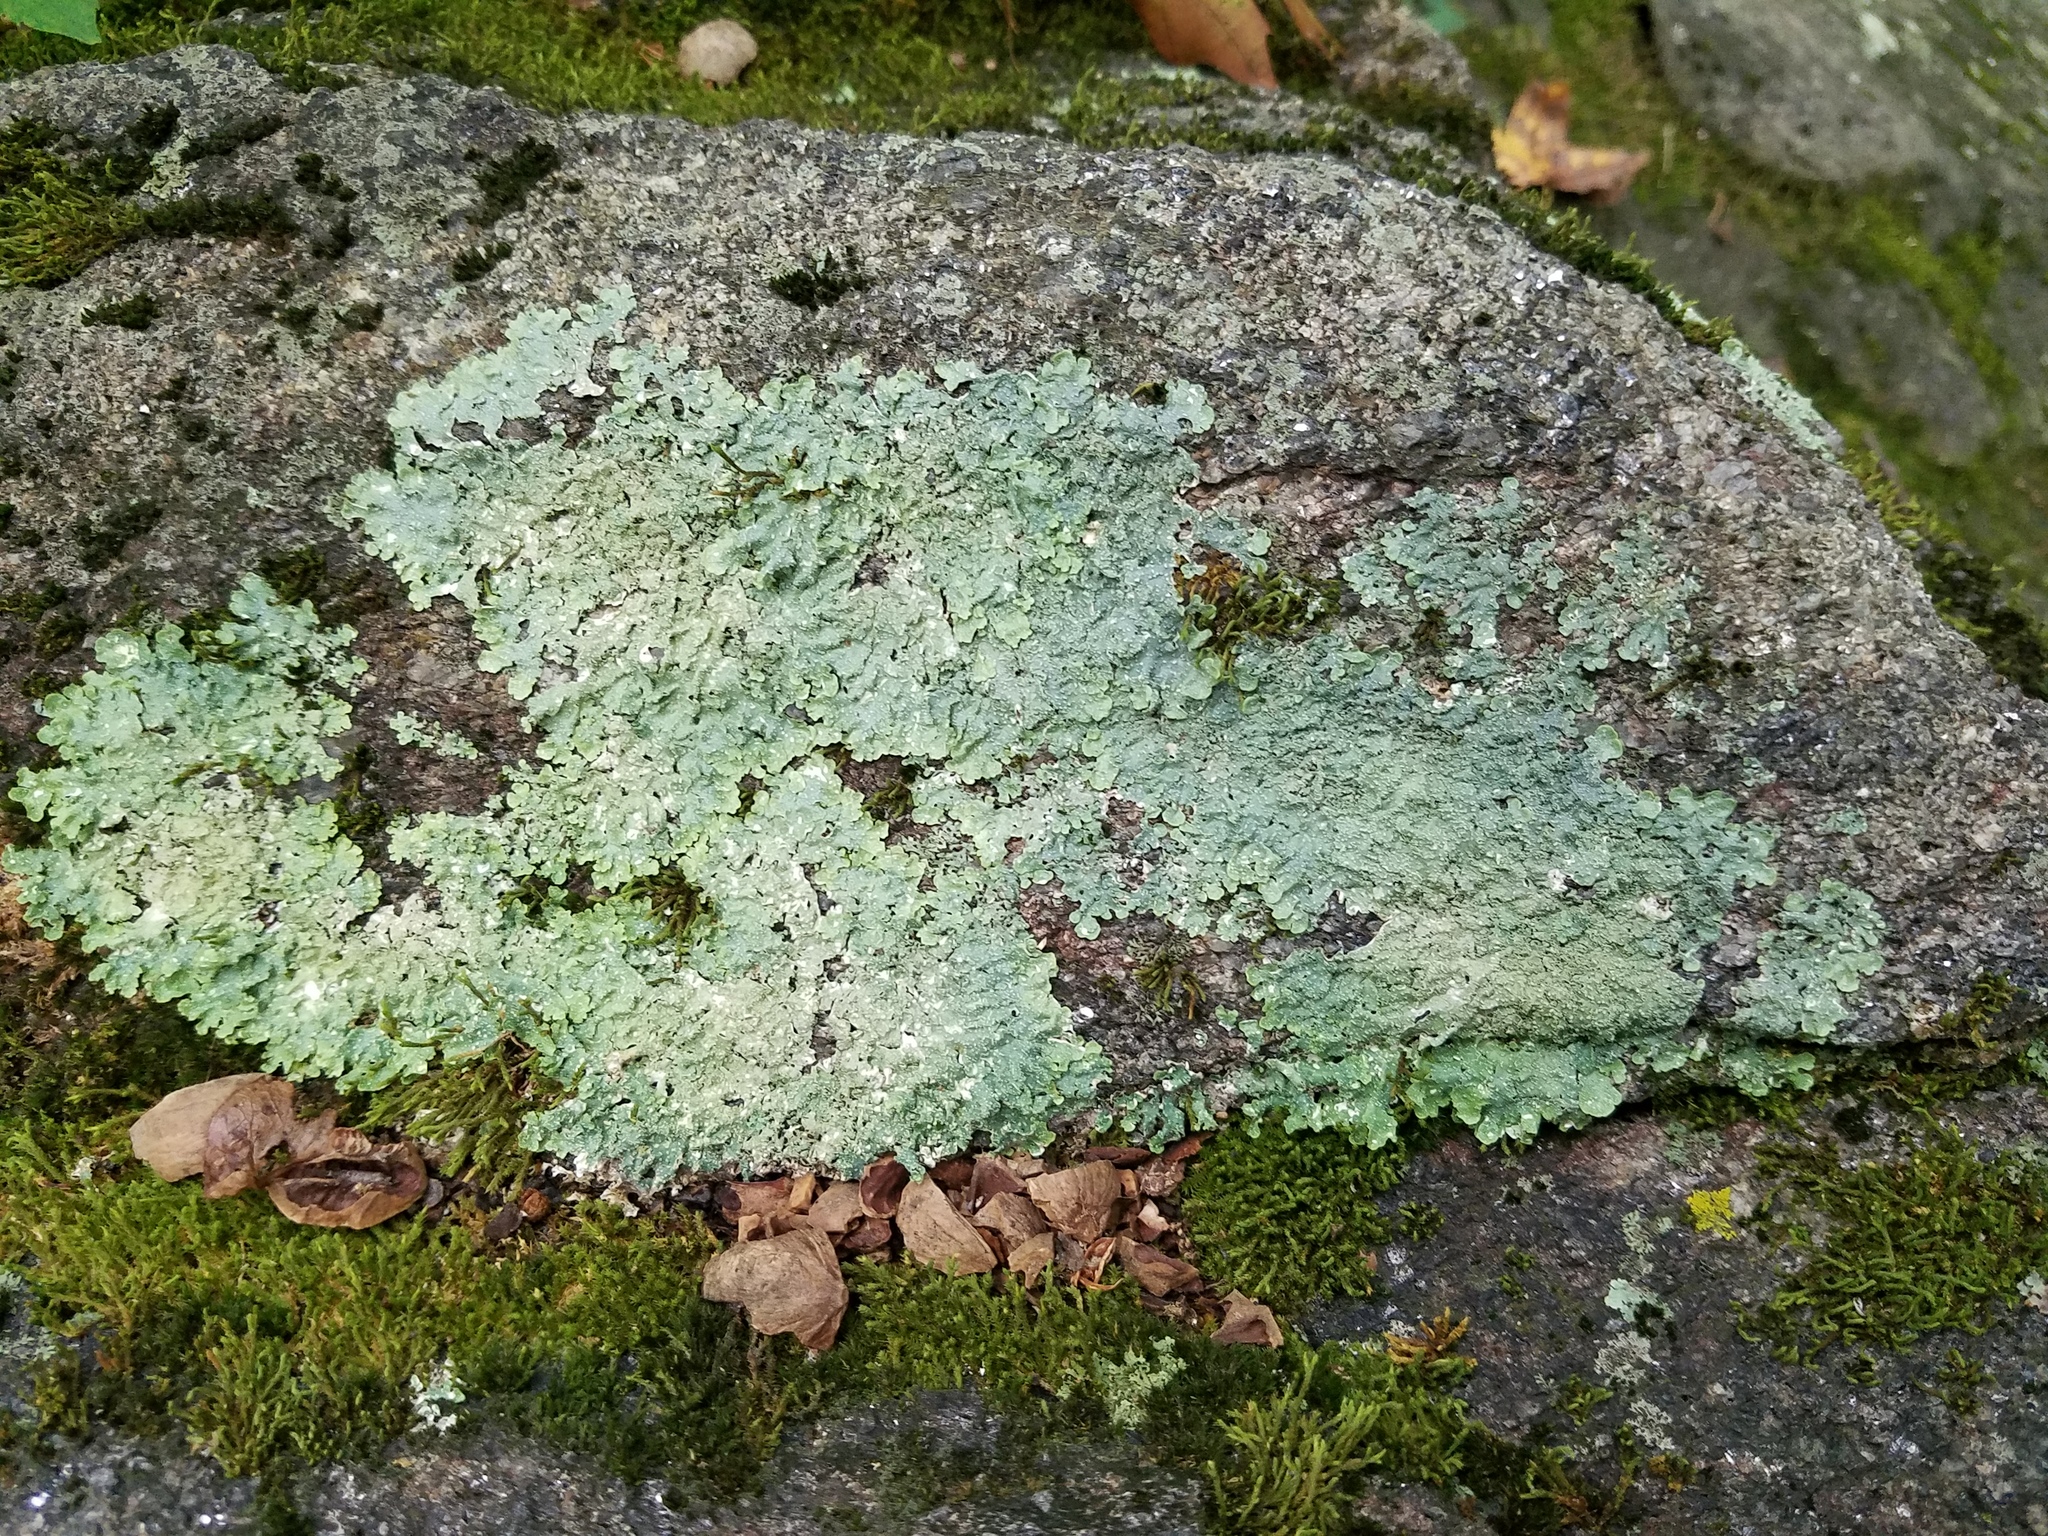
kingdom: Fungi
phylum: Ascomycota
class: Lecanoromycetes
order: Lecanorales
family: Parmeliaceae
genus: Punctelia
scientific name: Punctelia rudecta
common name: Rough speckled shield lichen
